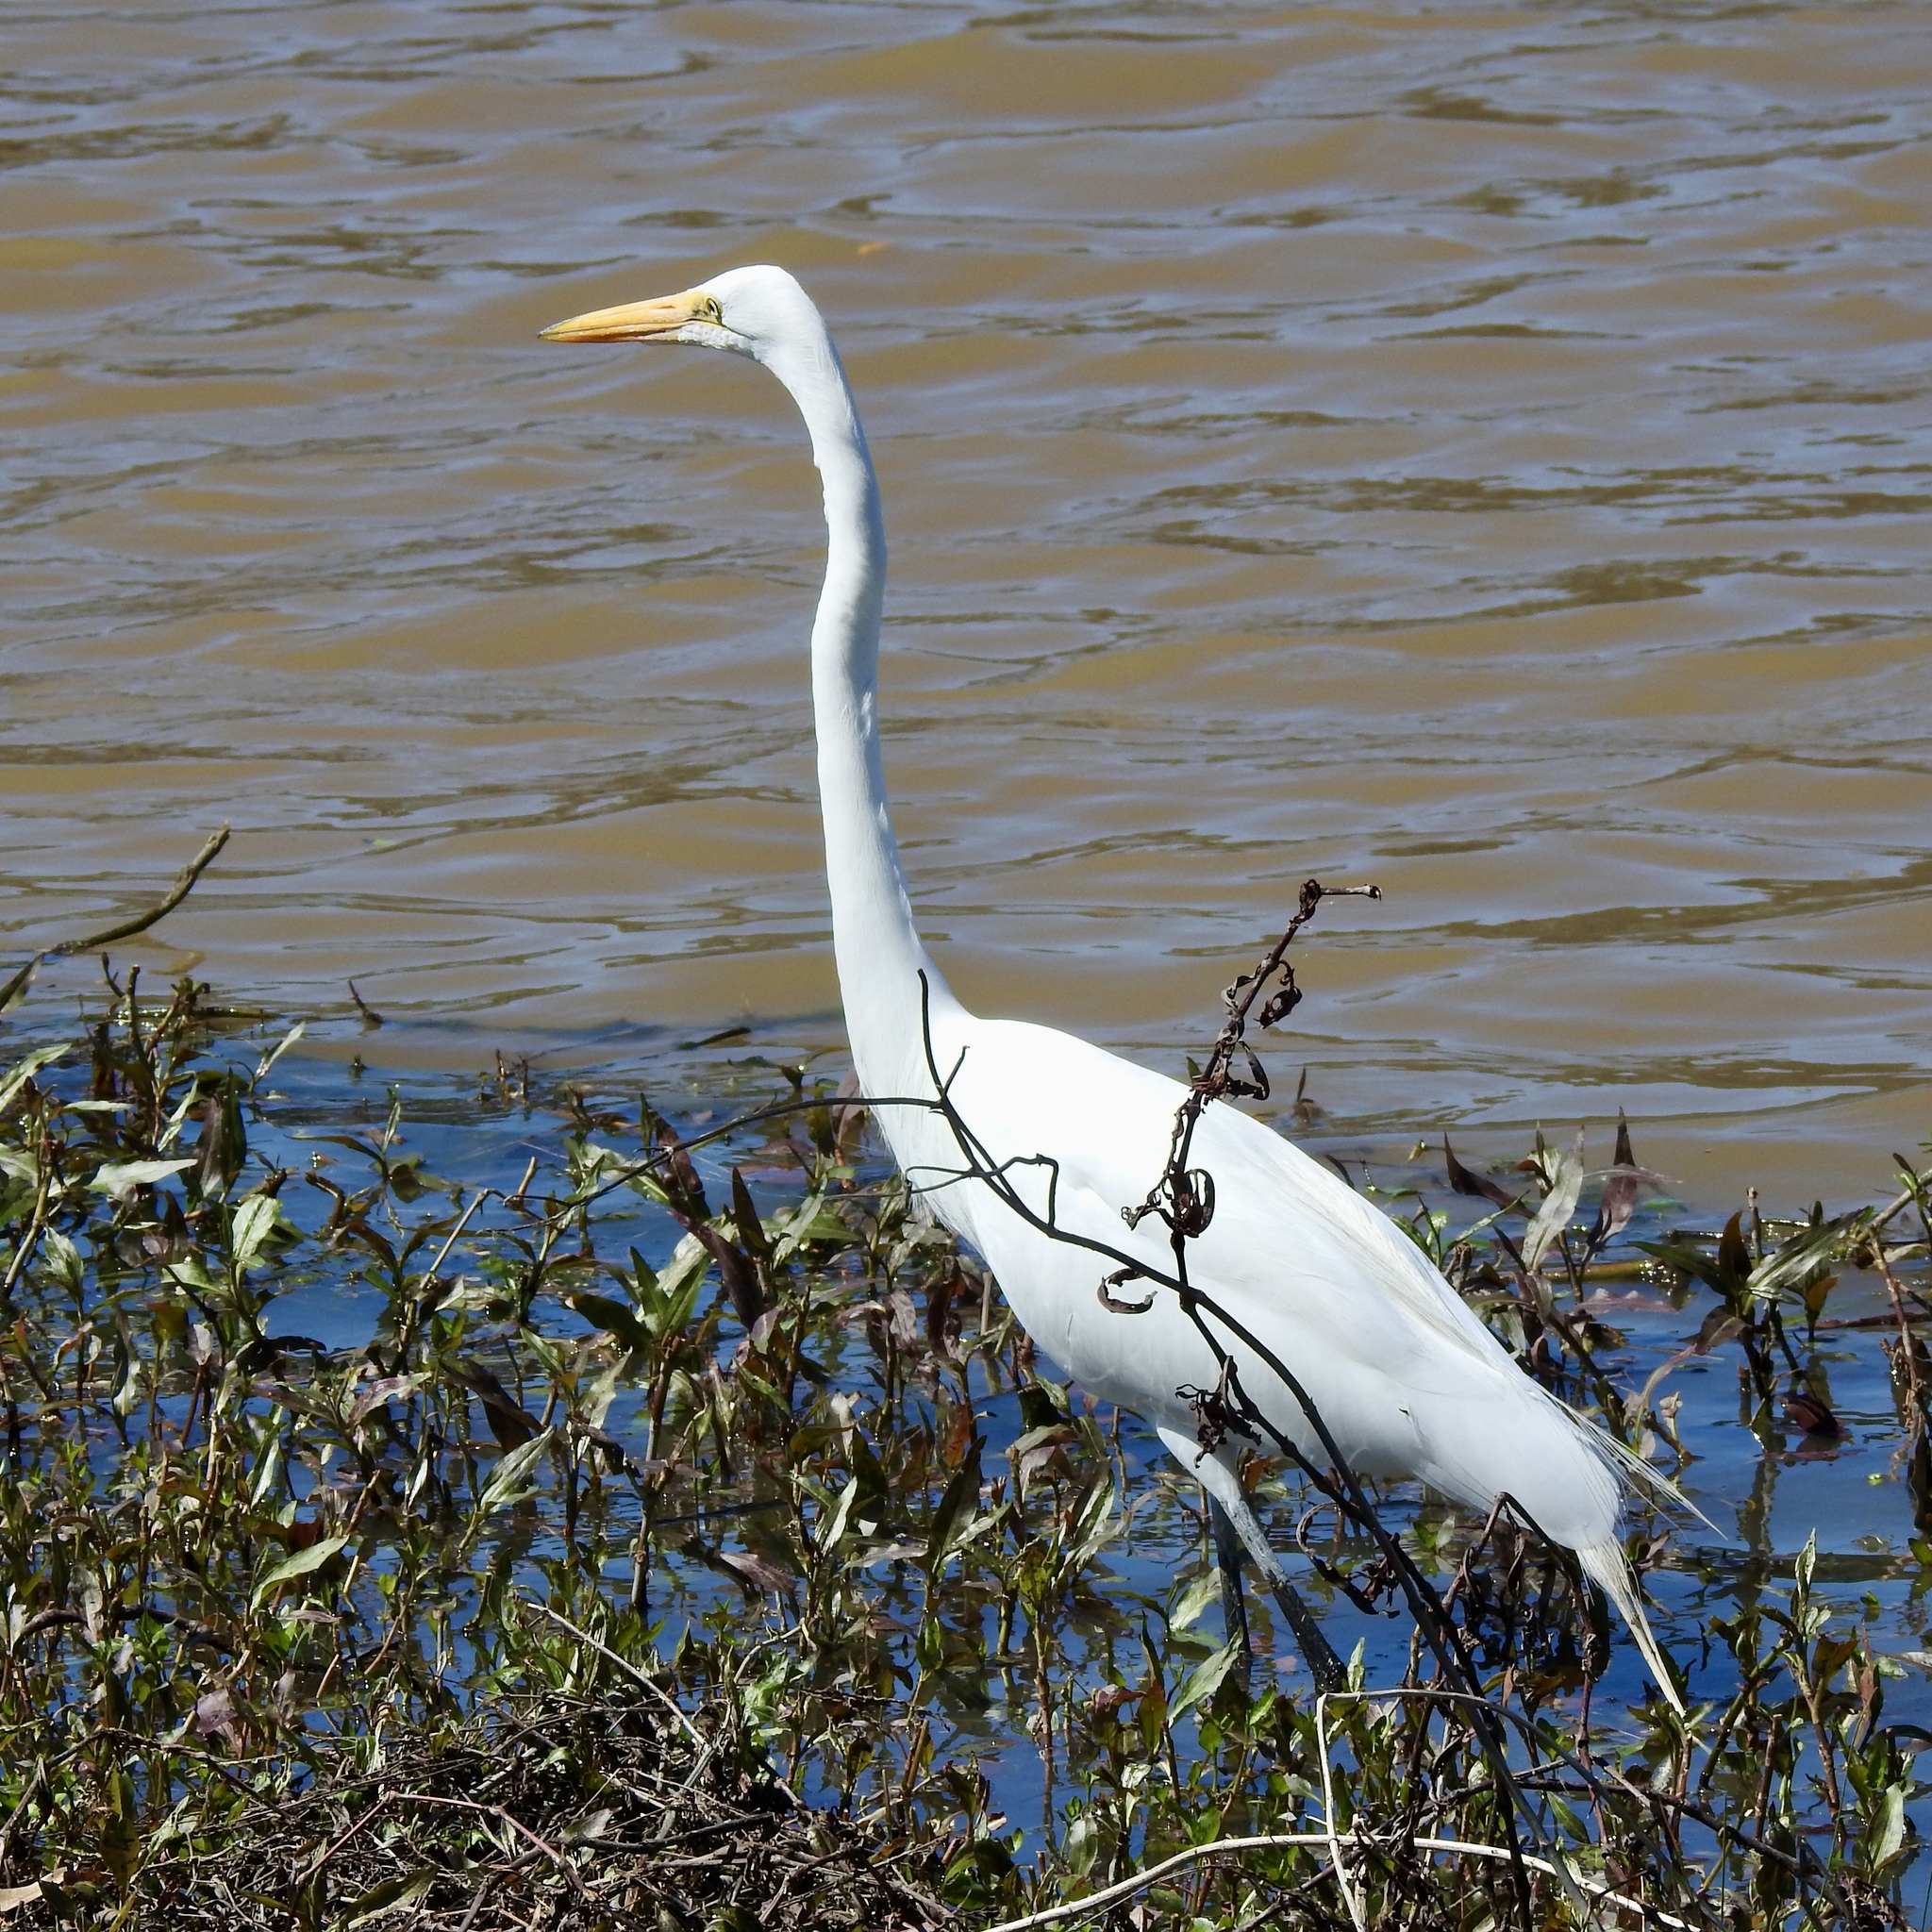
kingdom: Animalia
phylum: Chordata
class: Aves
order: Pelecaniformes
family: Ardeidae
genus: Ardea
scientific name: Ardea alba
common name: Great egret
